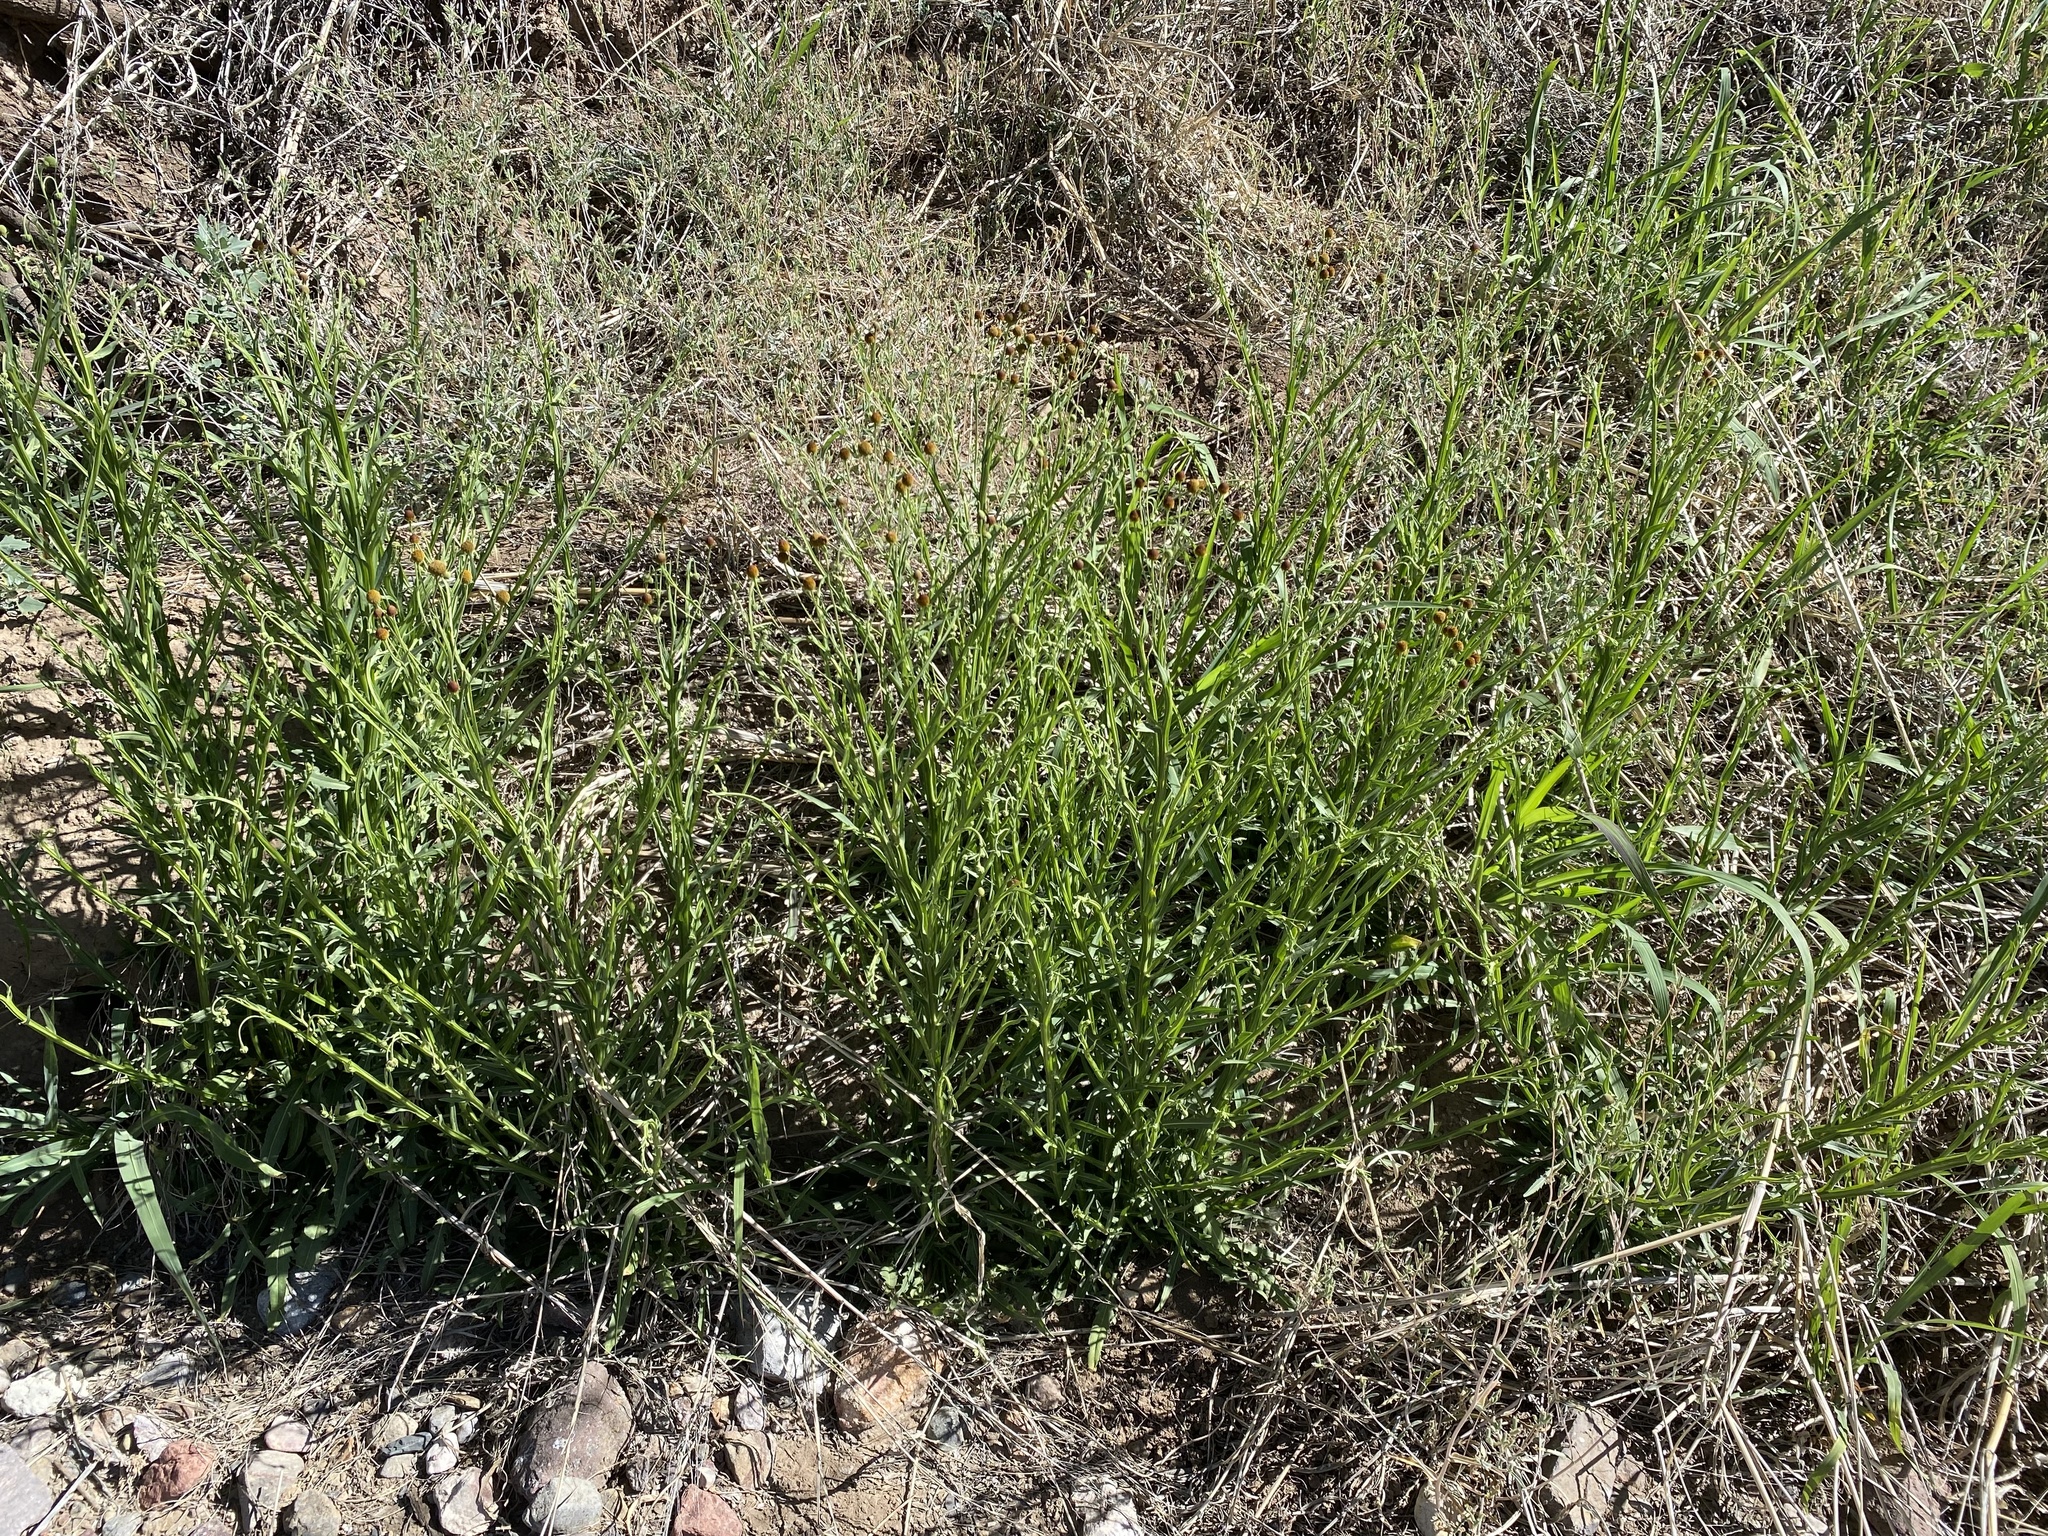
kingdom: Plantae
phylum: Tracheophyta
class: Magnoliopsida
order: Asterales
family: Asteraceae
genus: Helenium
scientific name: Helenium thurberi
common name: Thurber's sneezeweed
